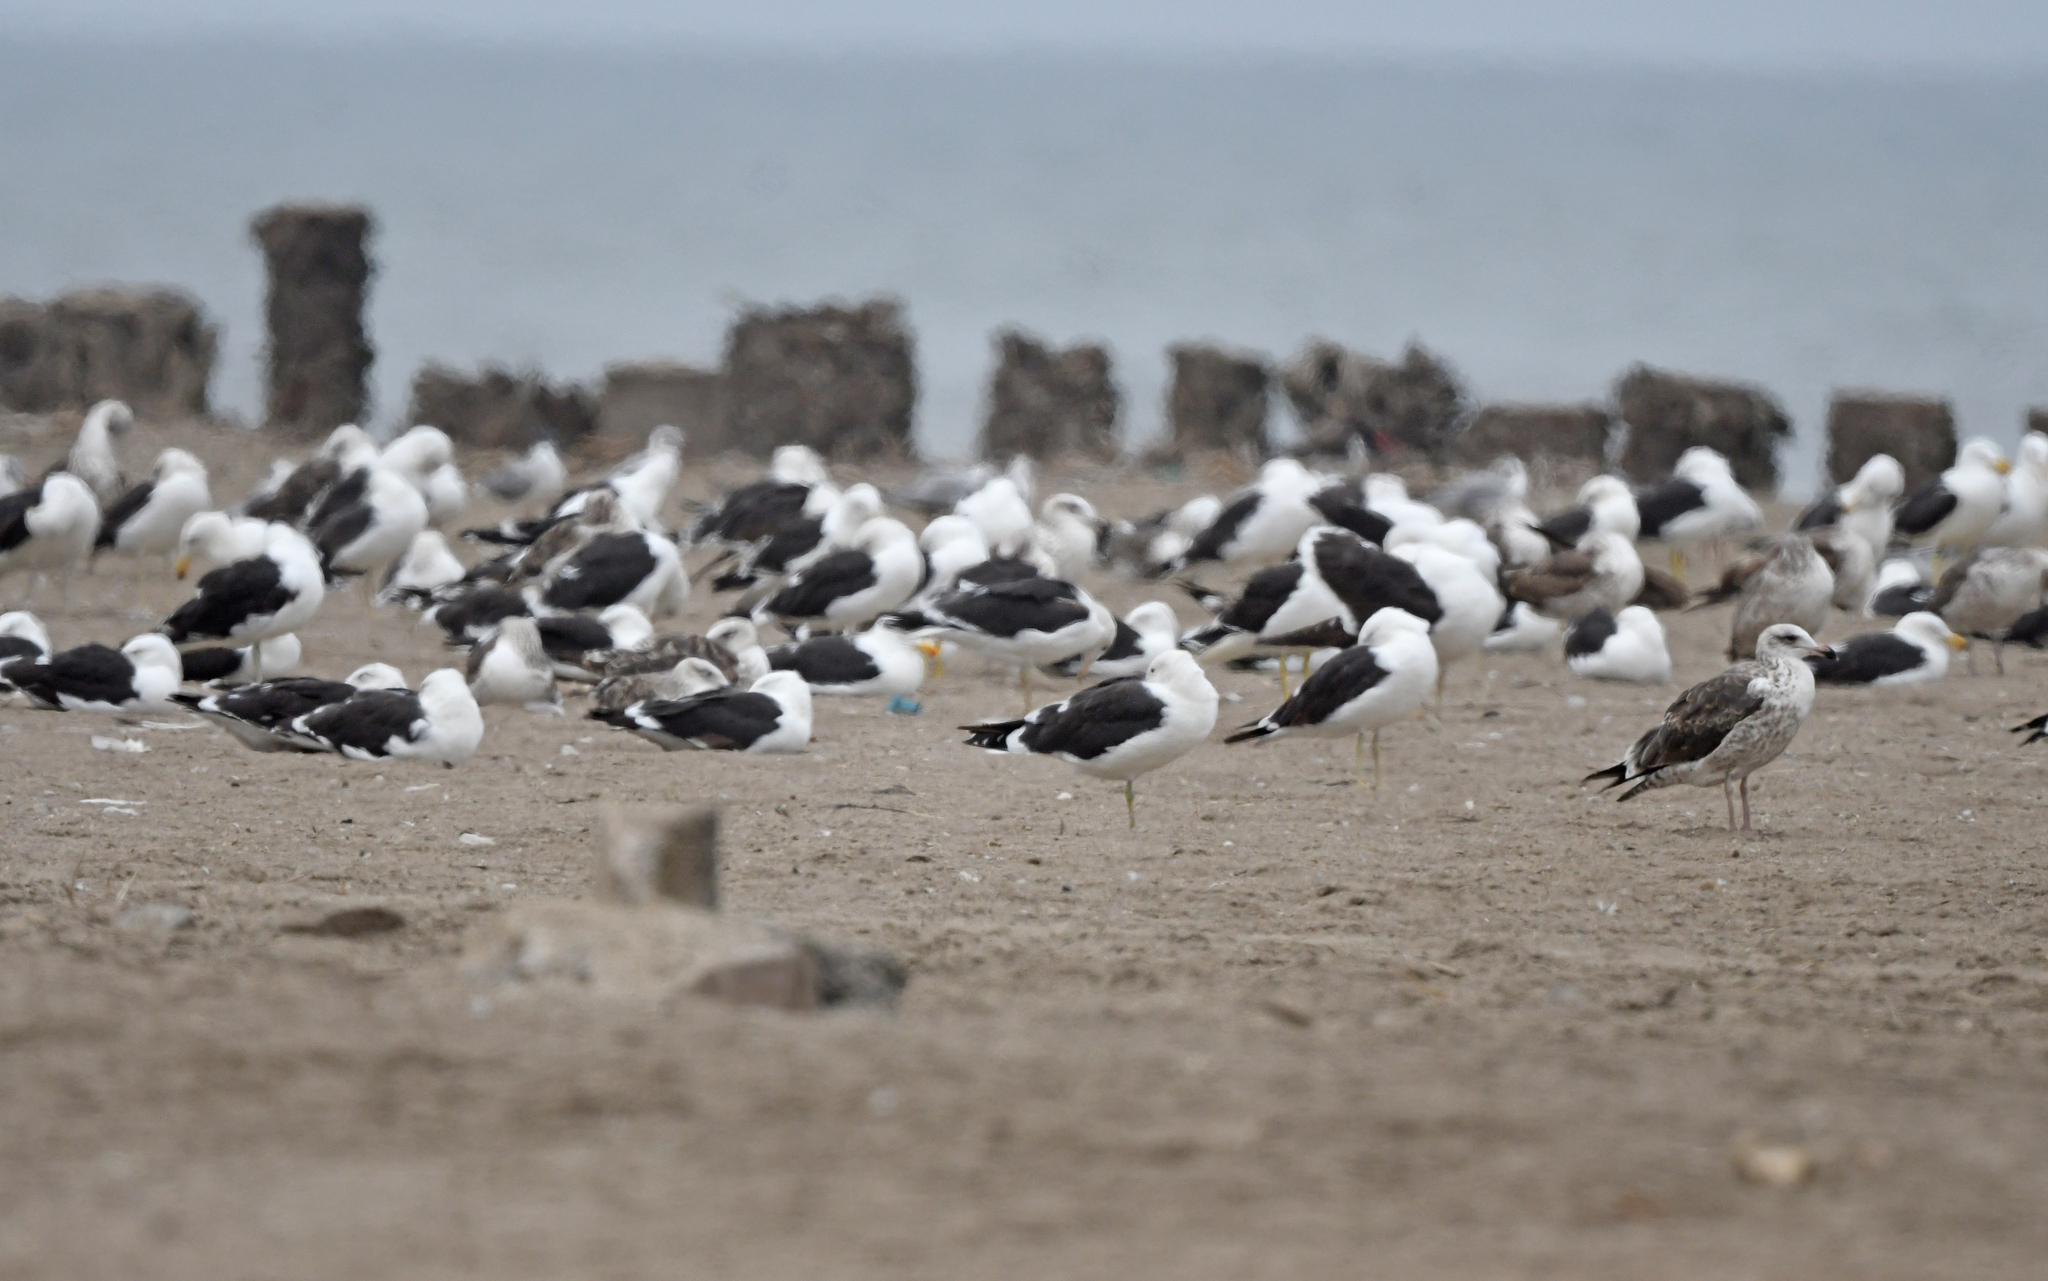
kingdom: Animalia
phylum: Chordata
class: Aves
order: Charadriiformes
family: Laridae
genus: Larus
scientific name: Larus dominicanus
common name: Kelp gull
